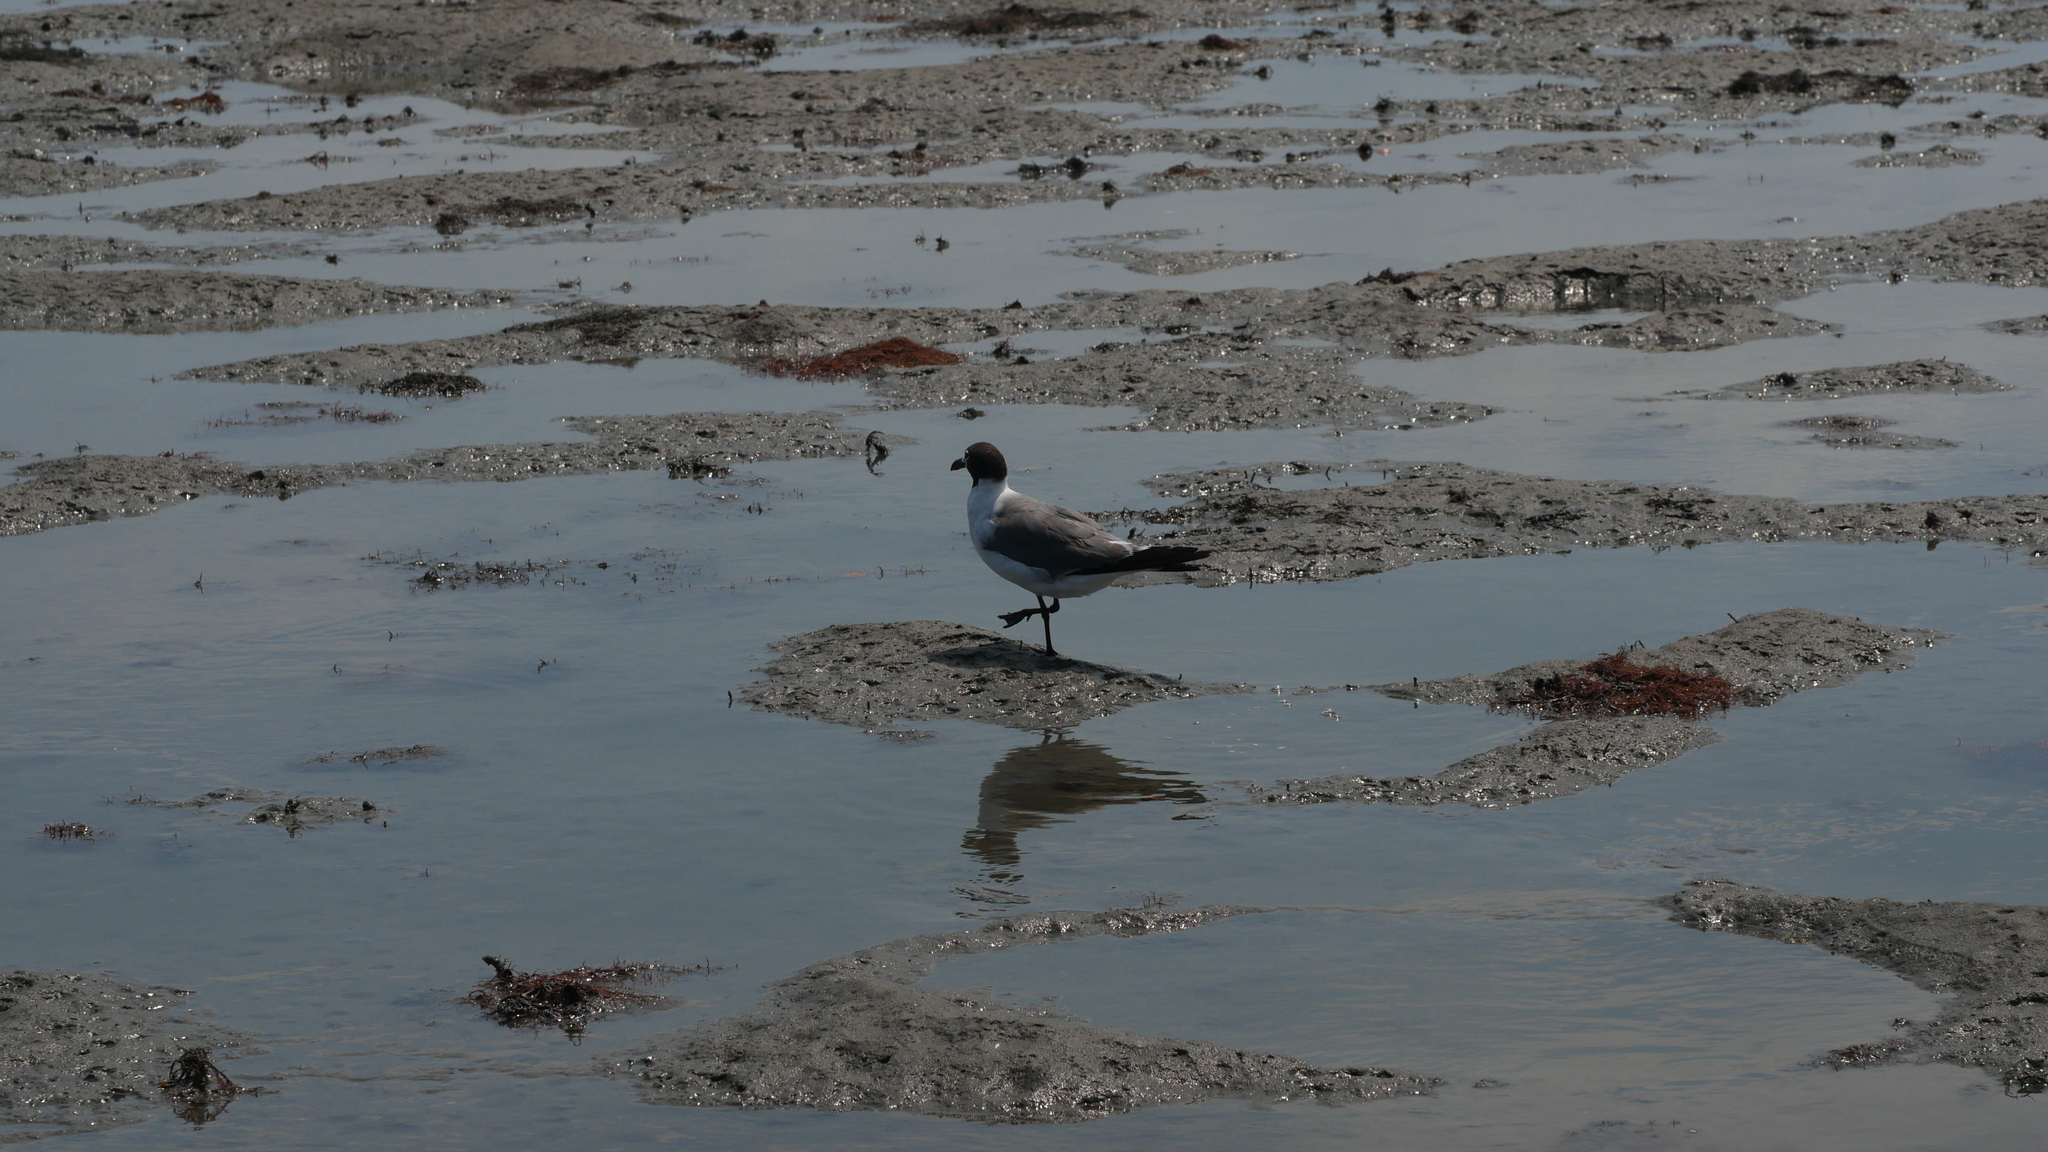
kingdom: Animalia
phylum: Chordata
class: Aves
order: Charadriiformes
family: Laridae
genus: Leucophaeus
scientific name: Leucophaeus atricilla
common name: Laughing gull
